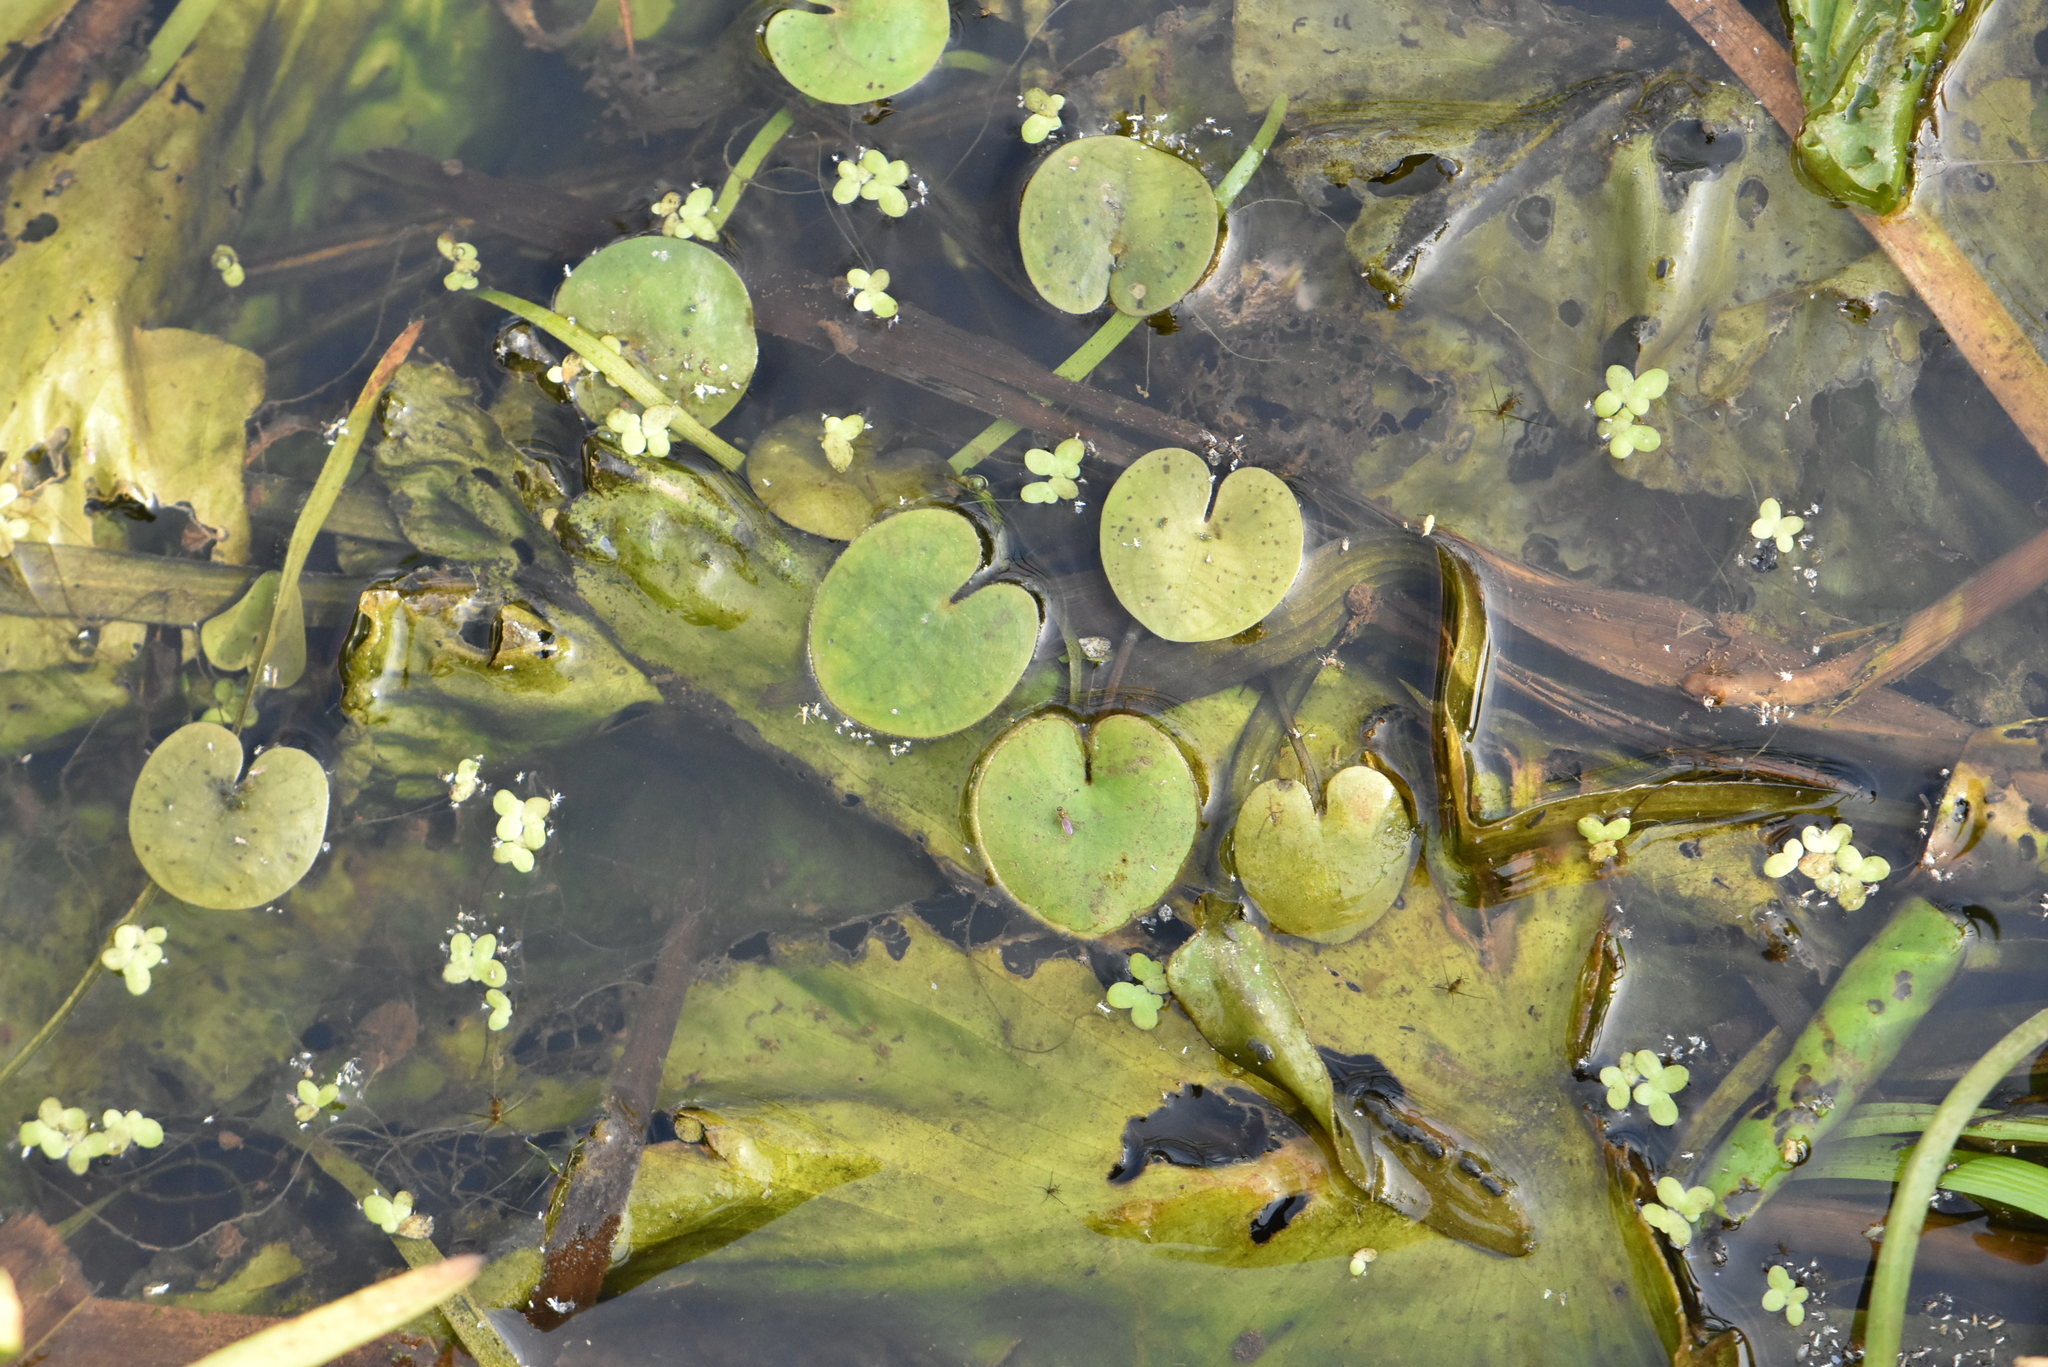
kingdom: Plantae
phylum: Tracheophyta
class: Liliopsida
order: Alismatales
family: Hydrocharitaceae
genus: Hydrocharis
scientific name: Hydrocharis morsus-ranae
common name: Frogbit
